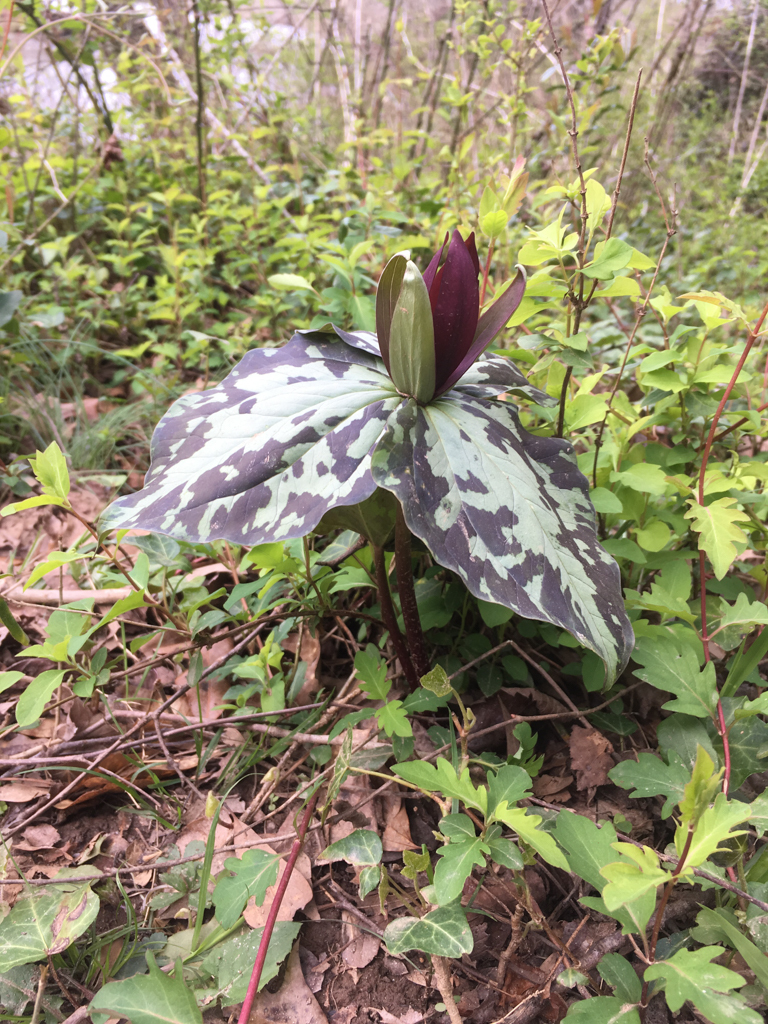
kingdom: Plantae
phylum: Tracheophyta
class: Liliopsida
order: Liliales
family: Melanthiaceae
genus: Trillium
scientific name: Trillium cuneatum
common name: Cuneate trillium
